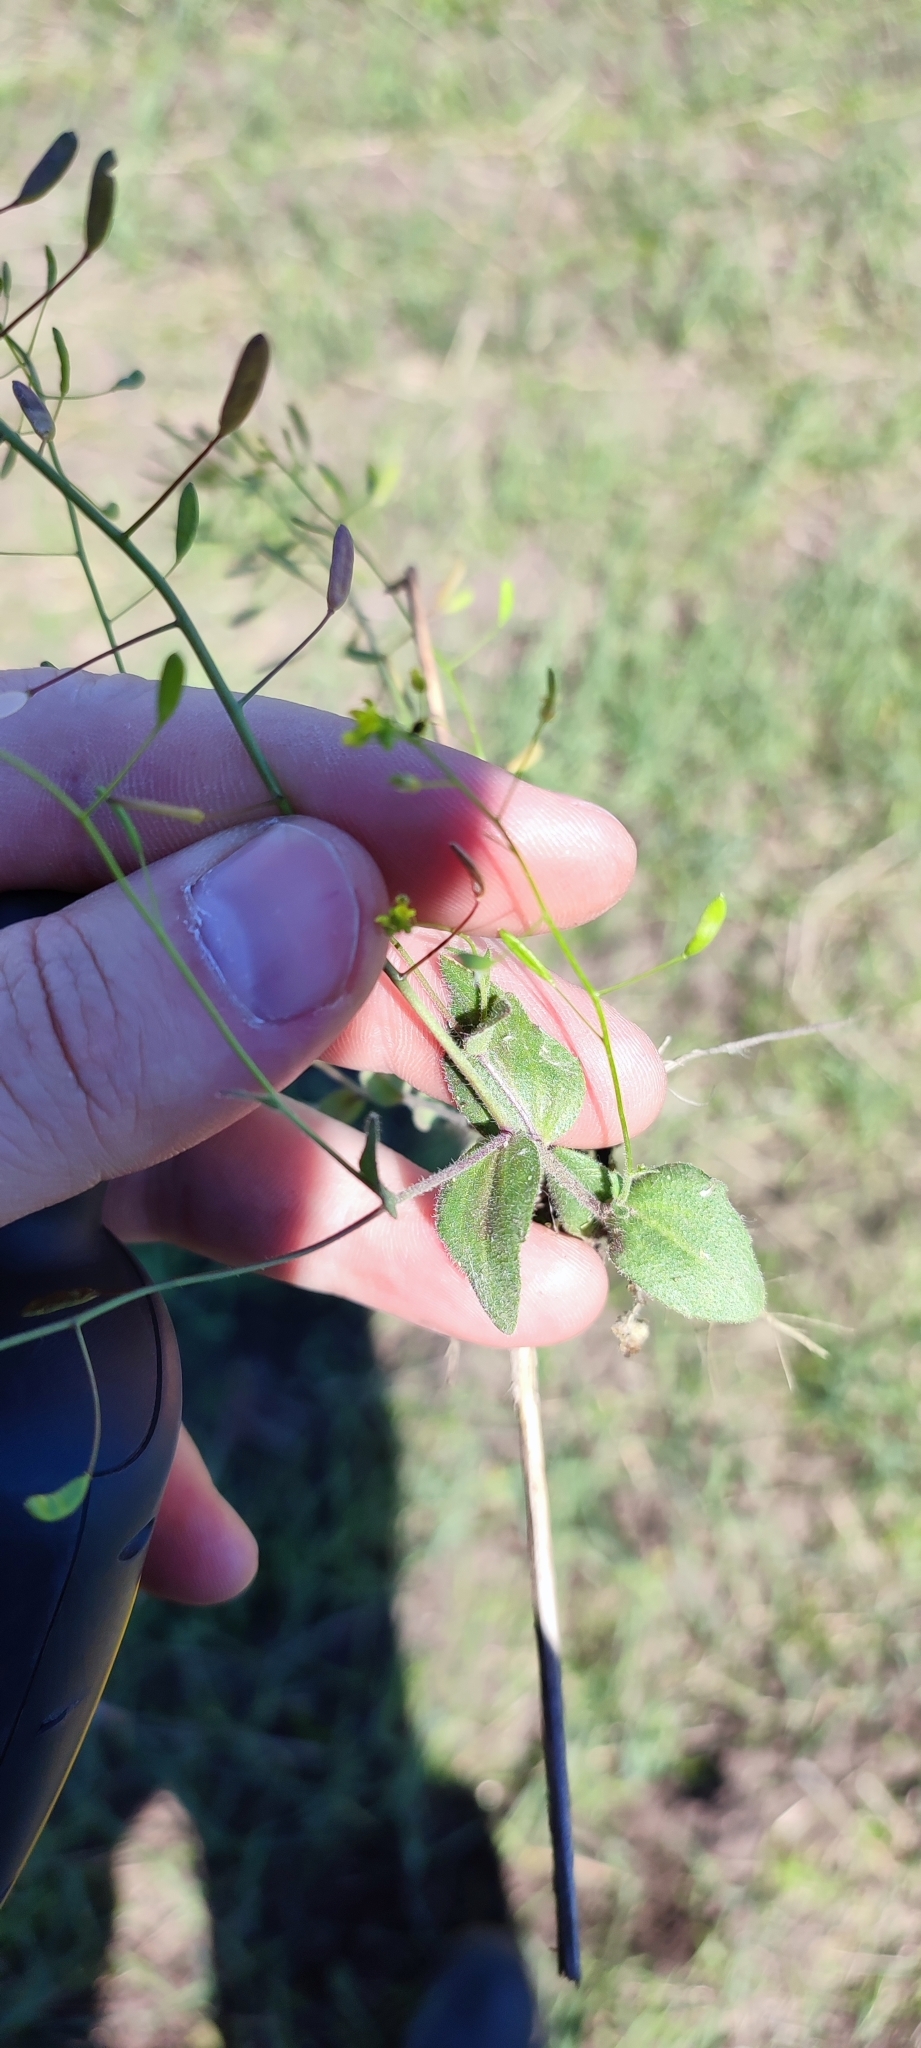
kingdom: Plantae
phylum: Tracheophyta
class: Magnoliopsida
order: Brassicales
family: Brassicaceae
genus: Draba
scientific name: Draba nemorosa
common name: Wood whitlow-grass
